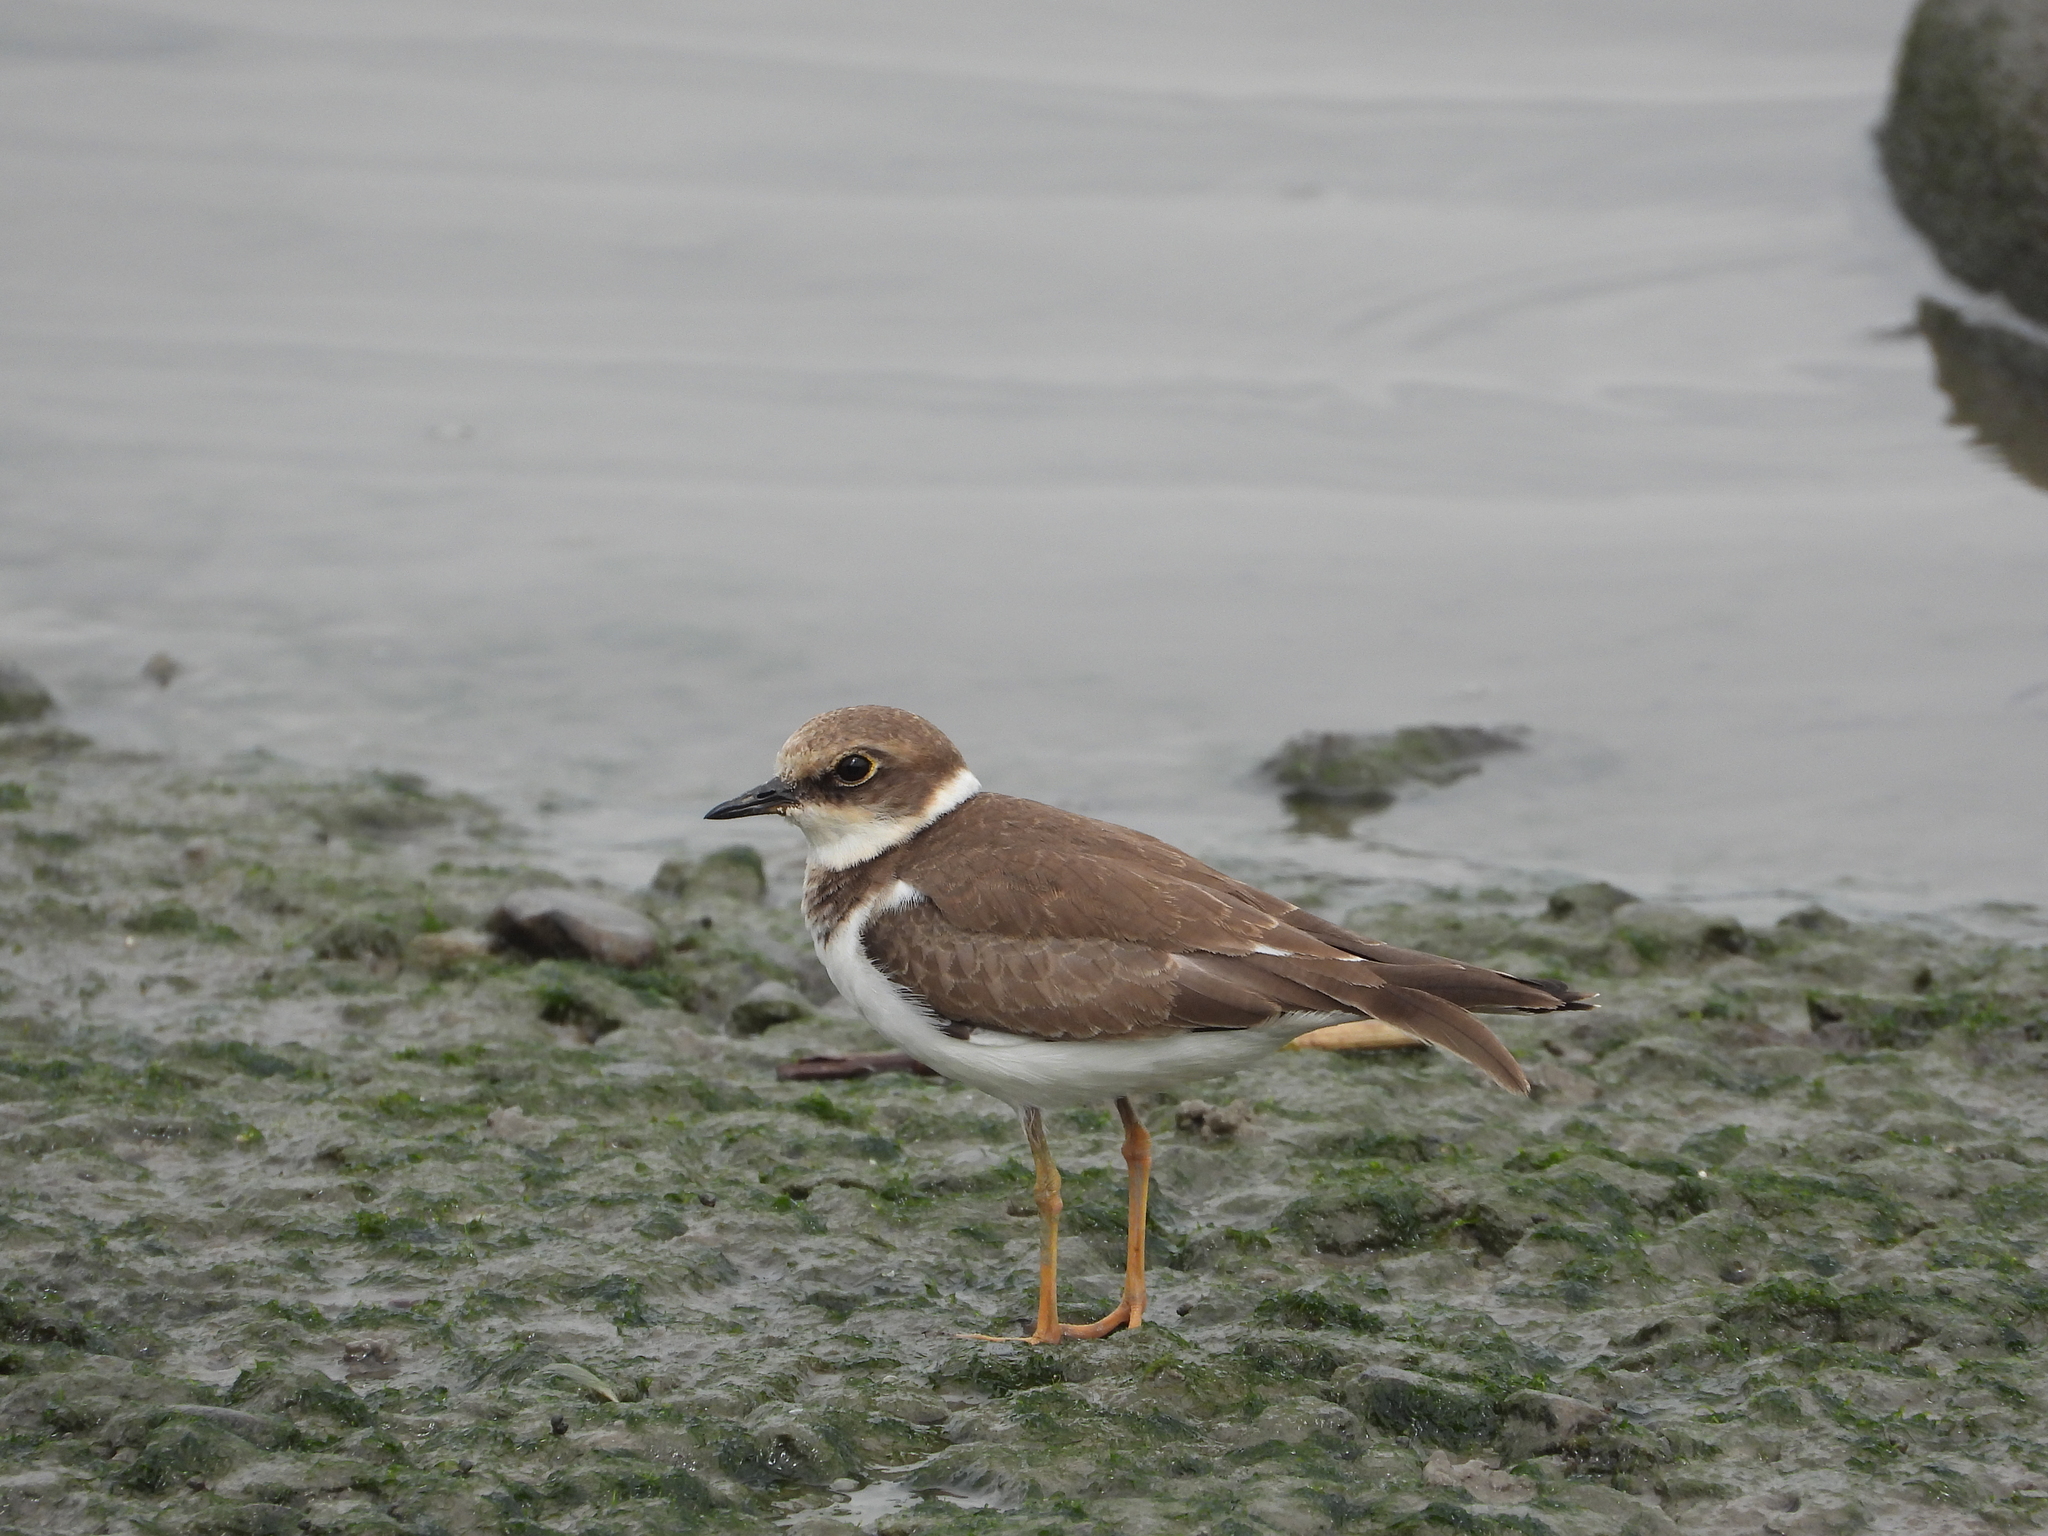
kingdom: Animalia
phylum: Chordata
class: Aves
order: Charadriiformes
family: Charadriidae
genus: Charadrius
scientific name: Charadrius dubius
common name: Little ringed plover
